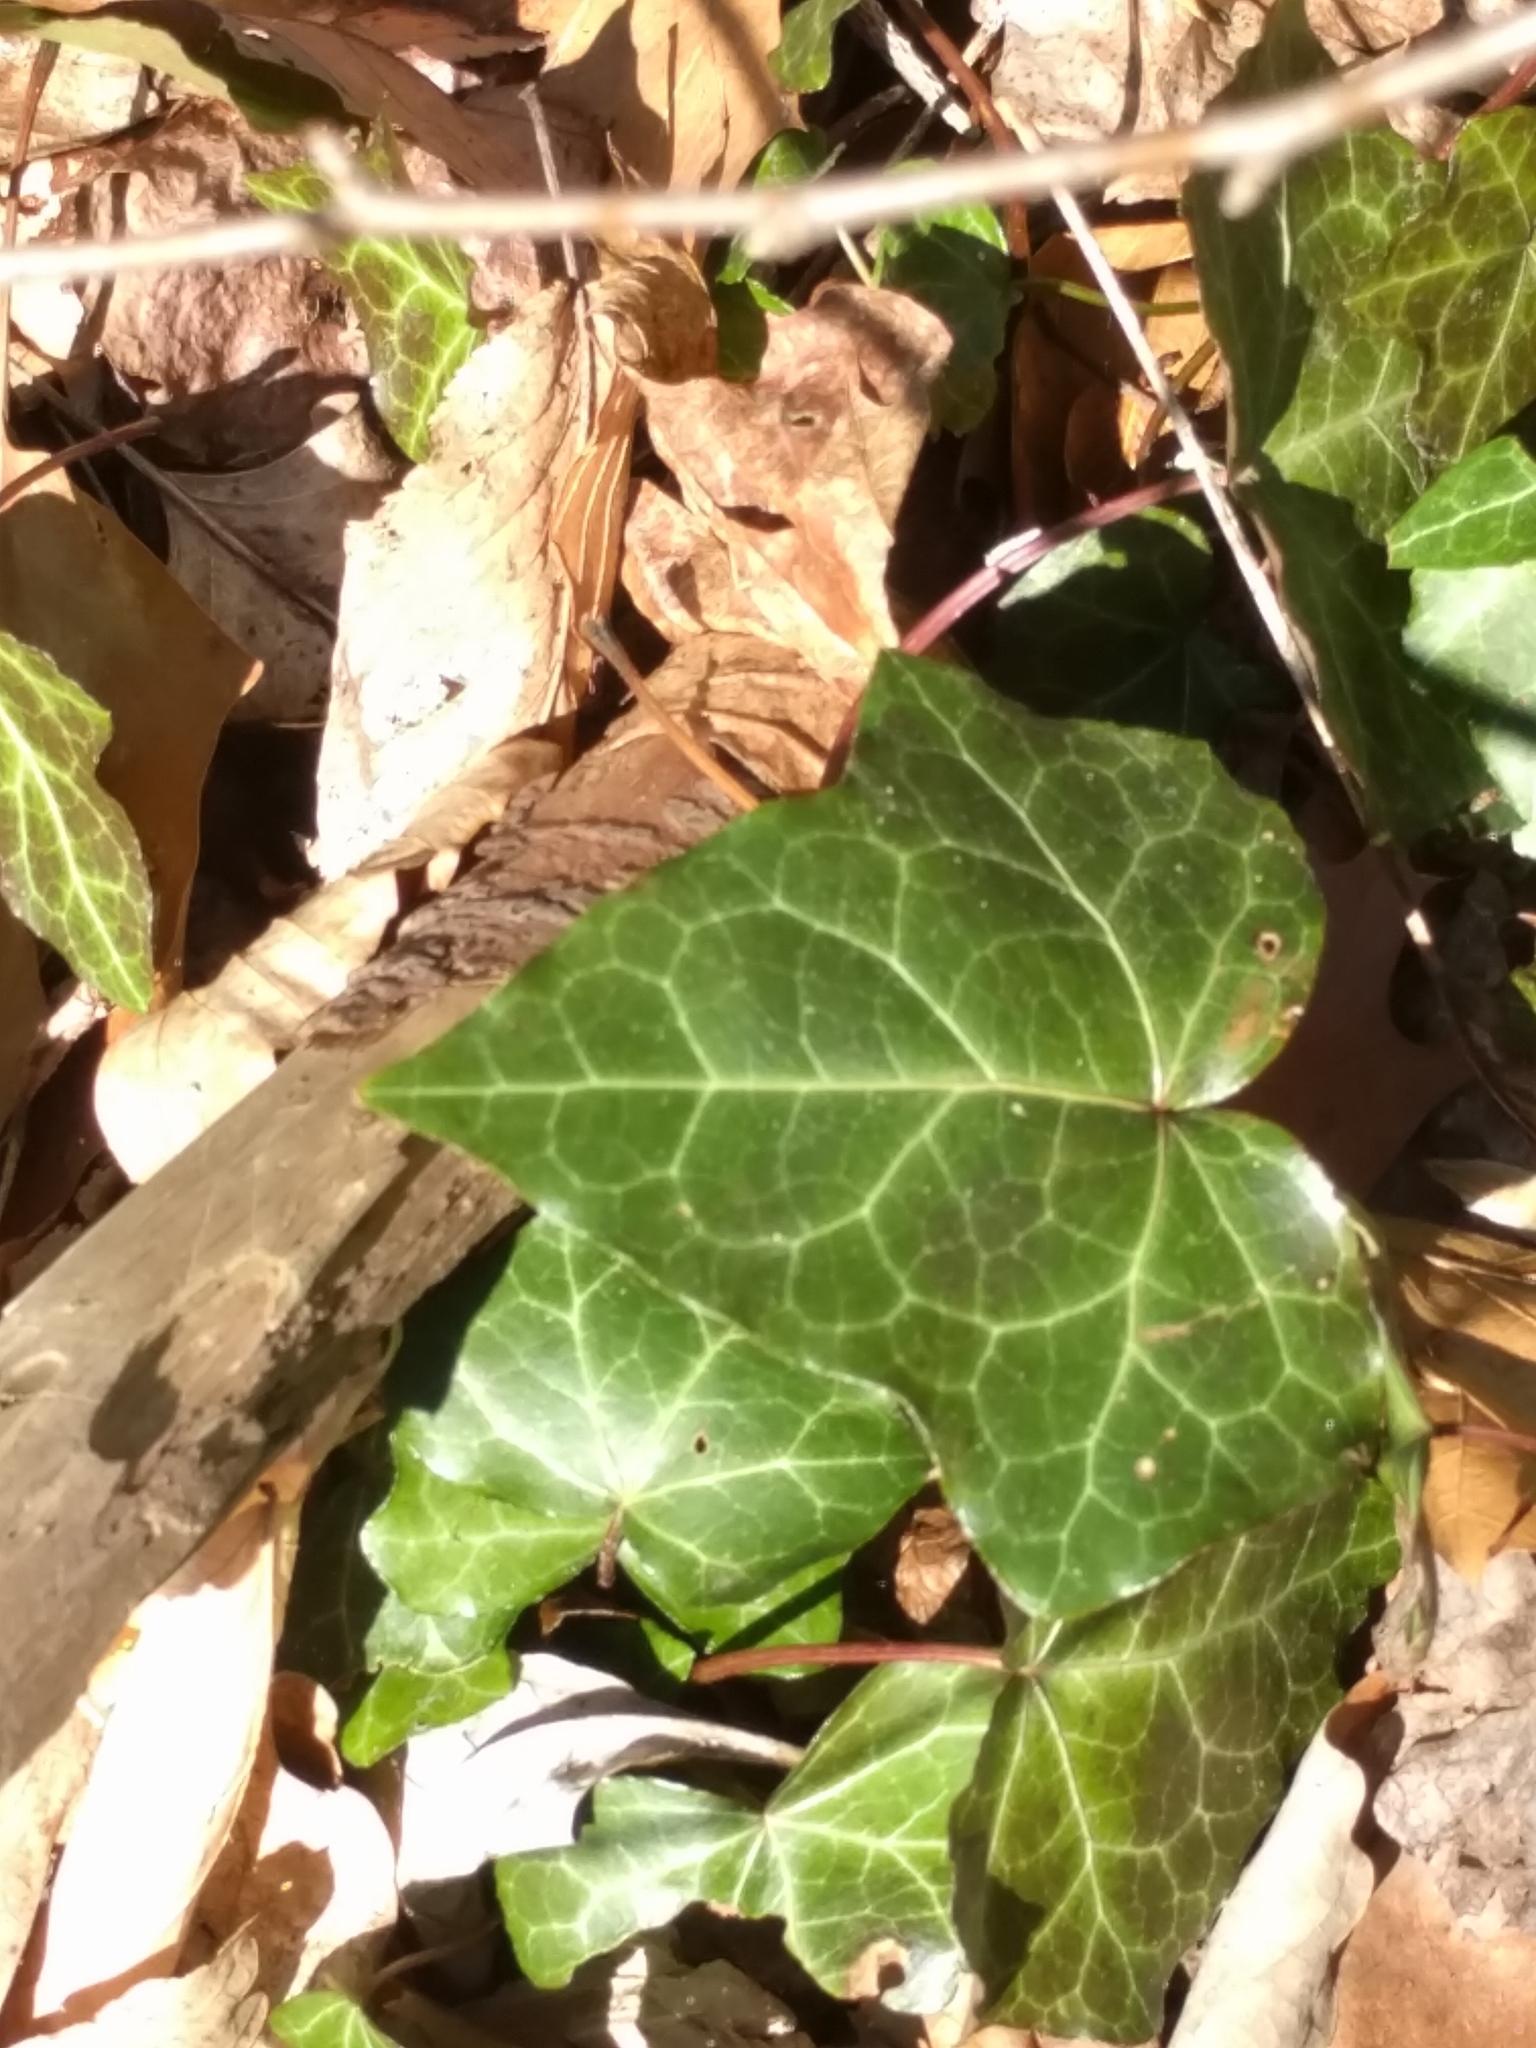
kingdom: Plantae
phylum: Tracheophyta
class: Magnoliopsida
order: Apiales
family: Araliaceae
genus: Hedera
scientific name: Hedera helix
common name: Ivy
